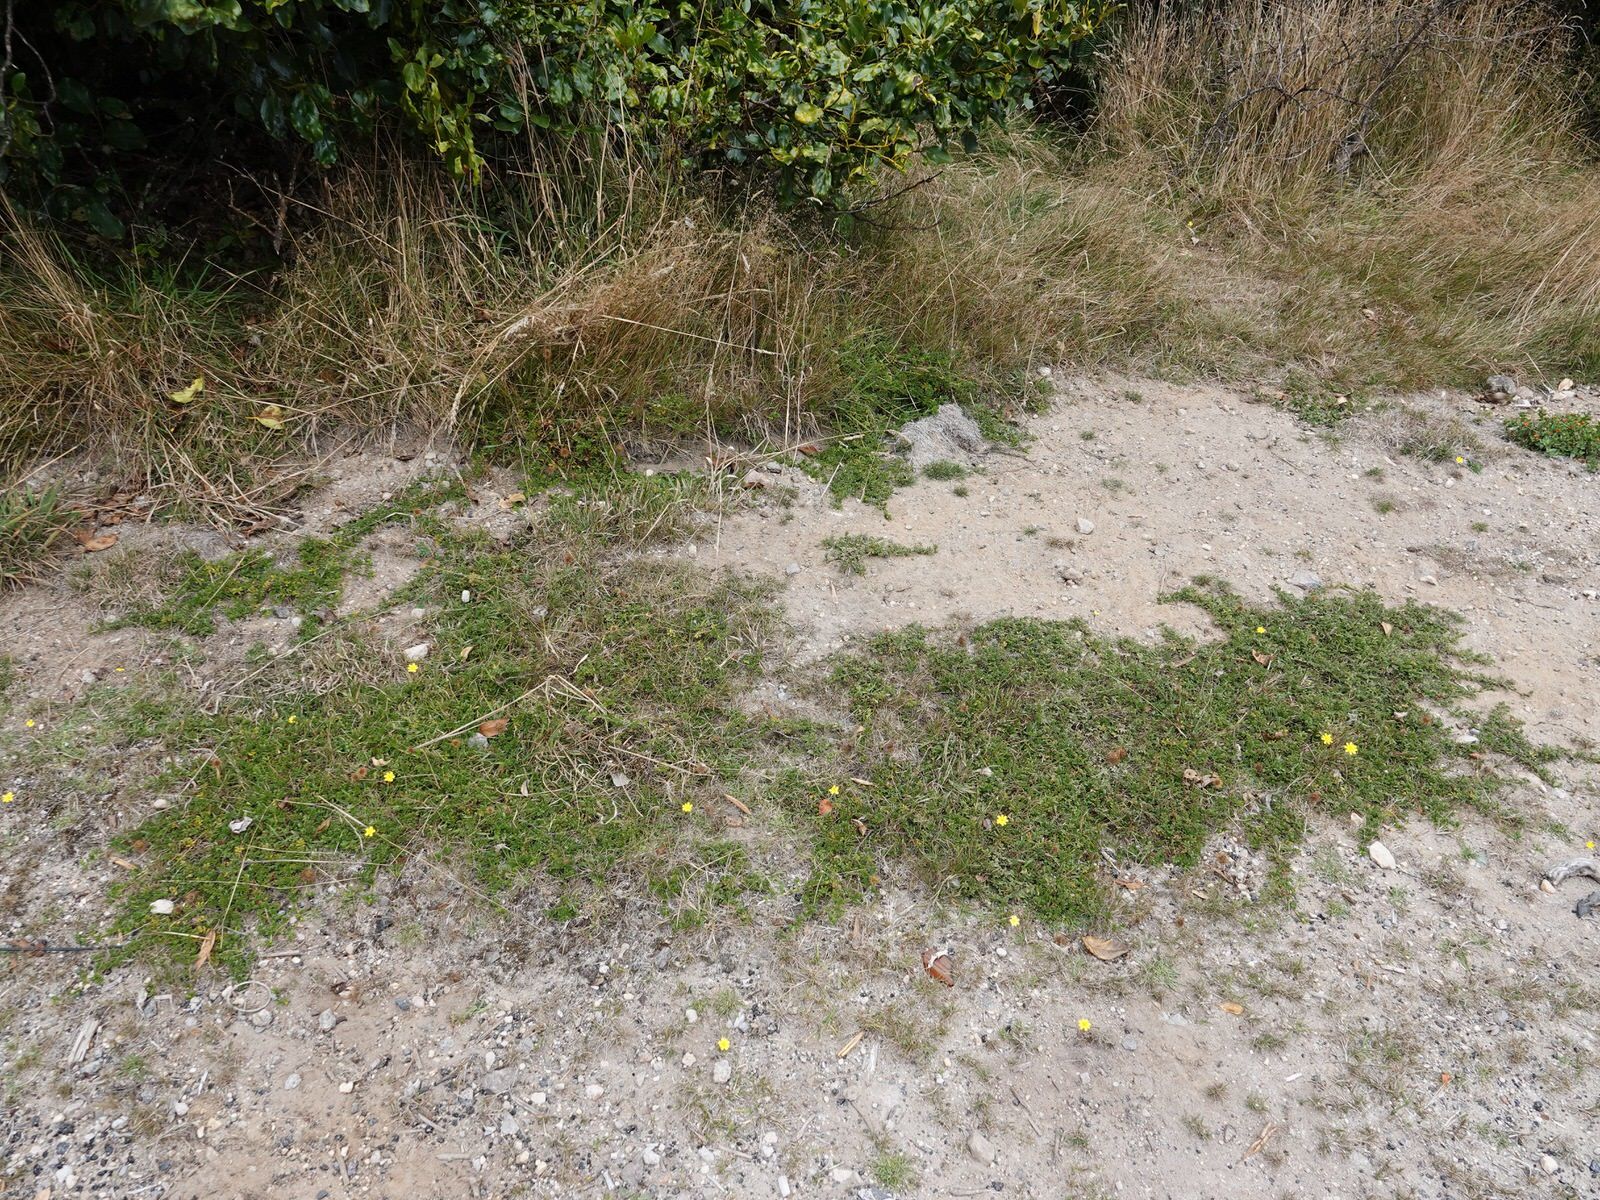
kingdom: Plantae
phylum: Tracheophyta
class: Magnoliopsida
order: Rosales
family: Rosaceae
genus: Acaena
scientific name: Acaena novae-zelandiae
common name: Pirri-pirri-bur
